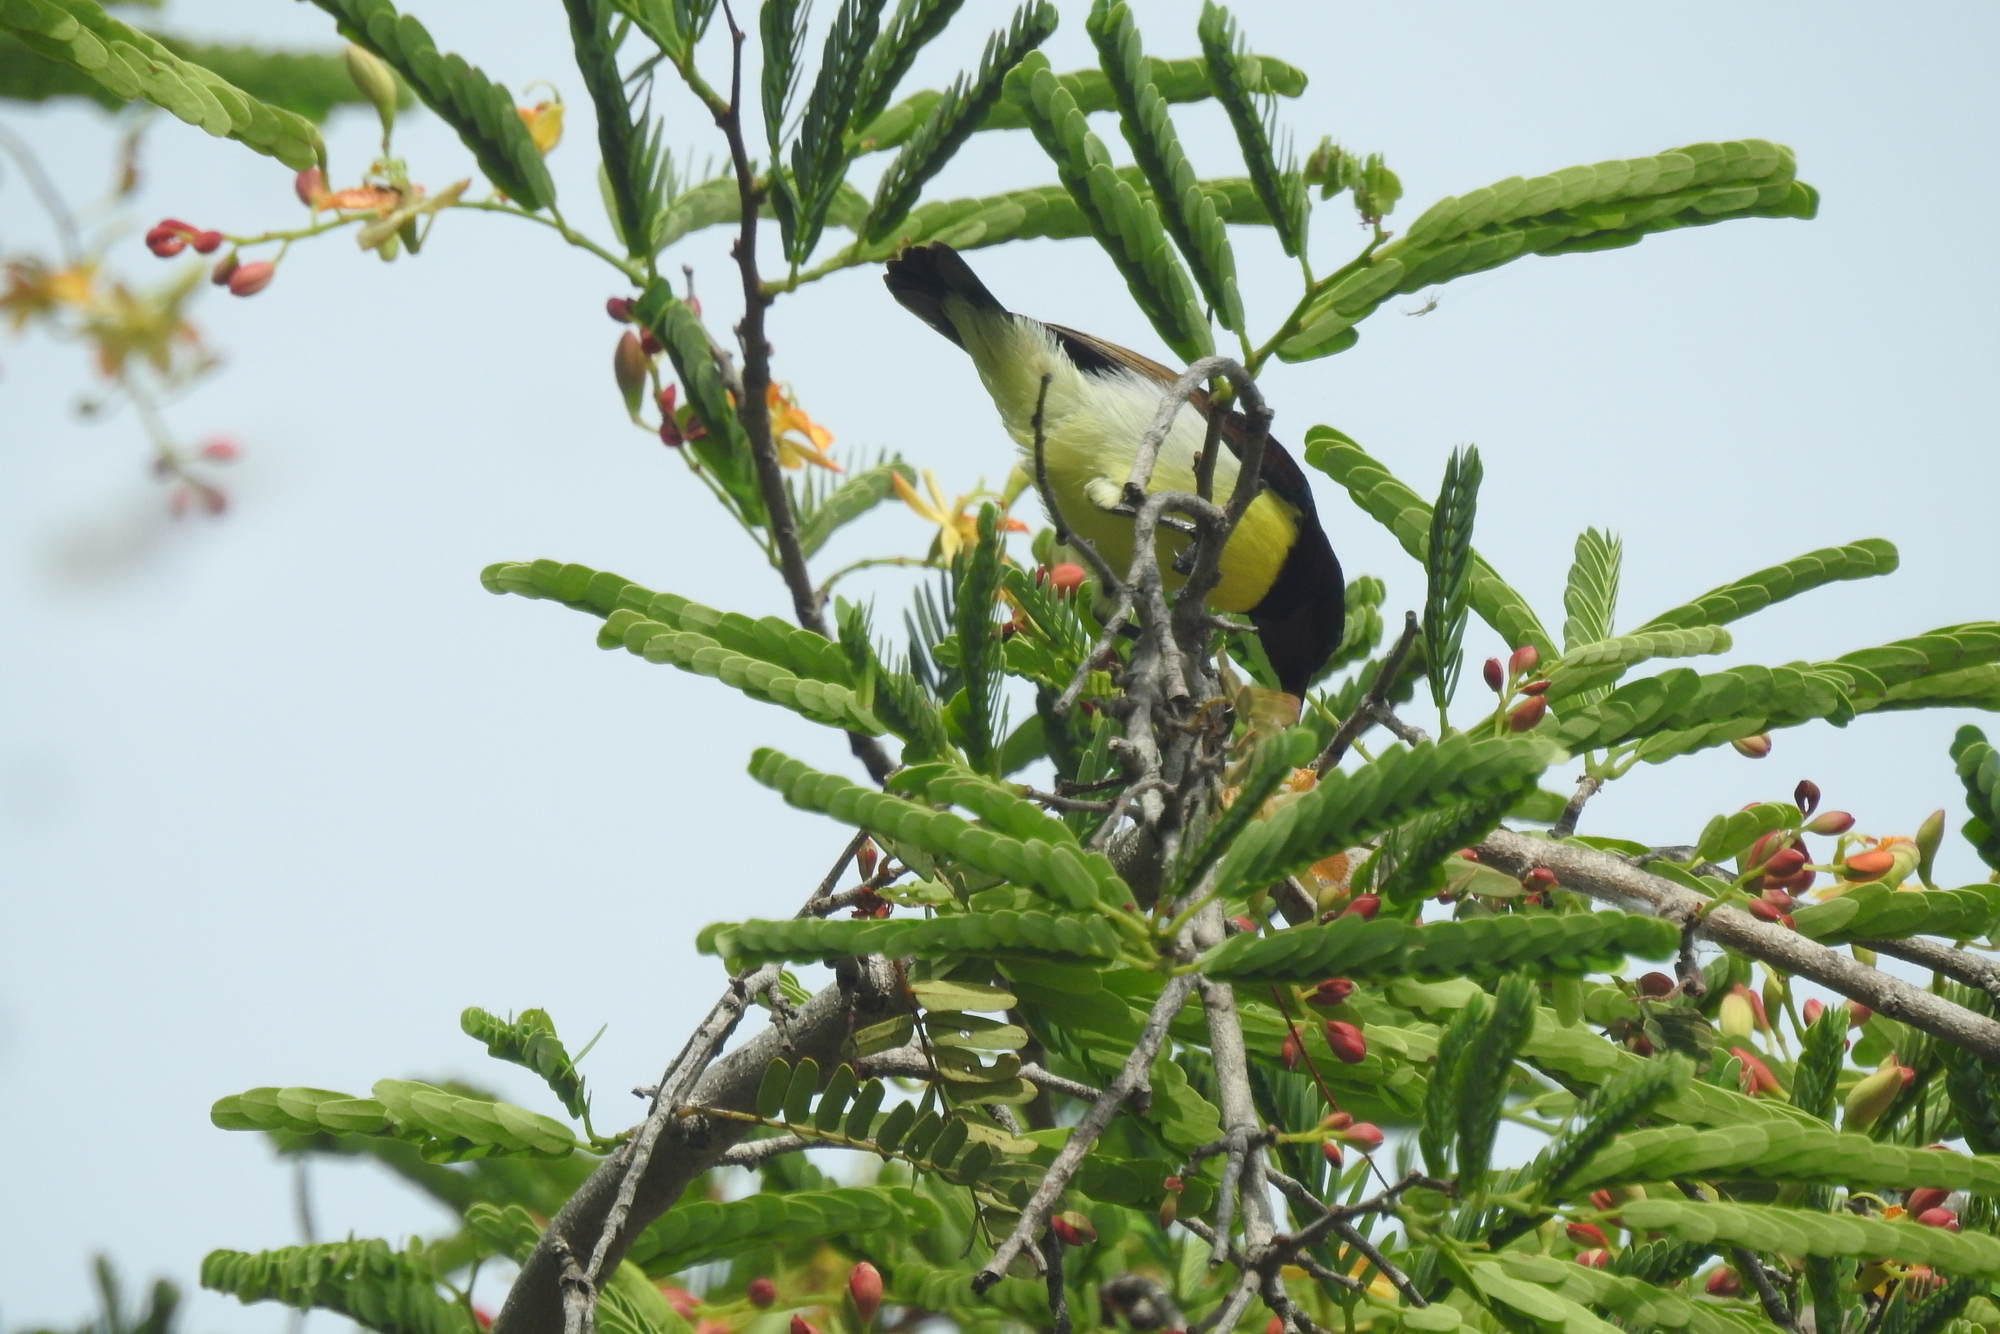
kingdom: Animalia
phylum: Chordata
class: Aves
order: Passeriformes
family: Nectariniidae
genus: Leptocoma
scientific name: Leptocoma zeylonica
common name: Purple-rumped sunbird
